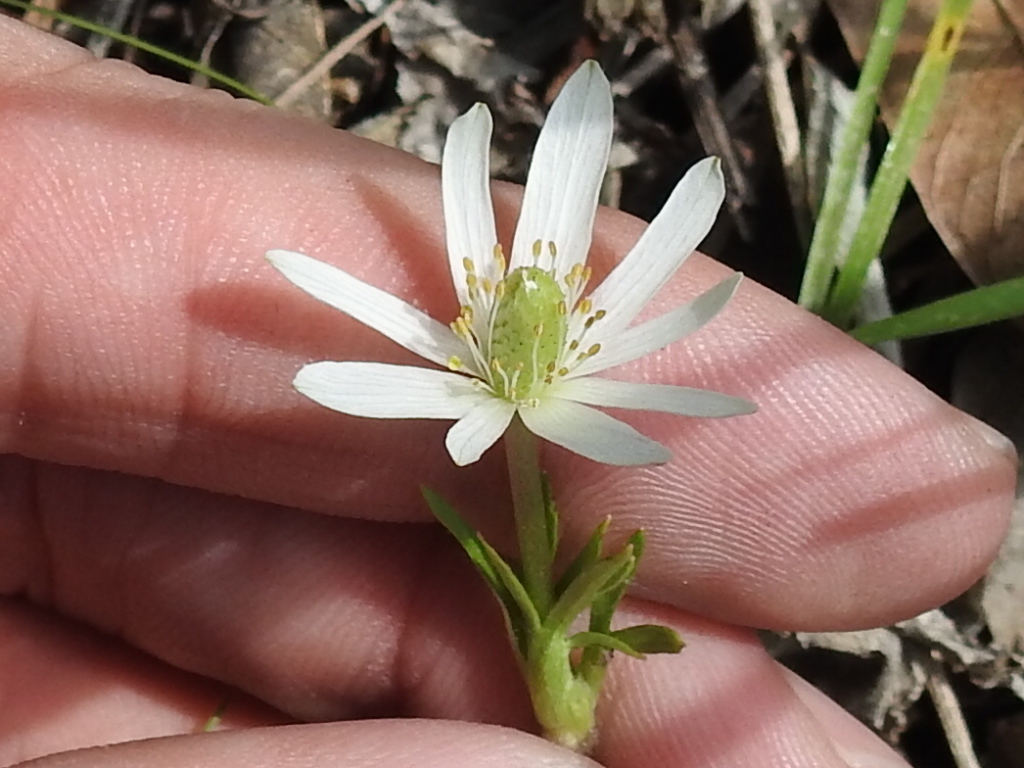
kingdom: Plantae
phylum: Tracheophyta
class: Magnoliopsida
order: Ranunculales
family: Ranunculaceae
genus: Anemone
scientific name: Anemone berlandieri
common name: Ten-petal anemone
